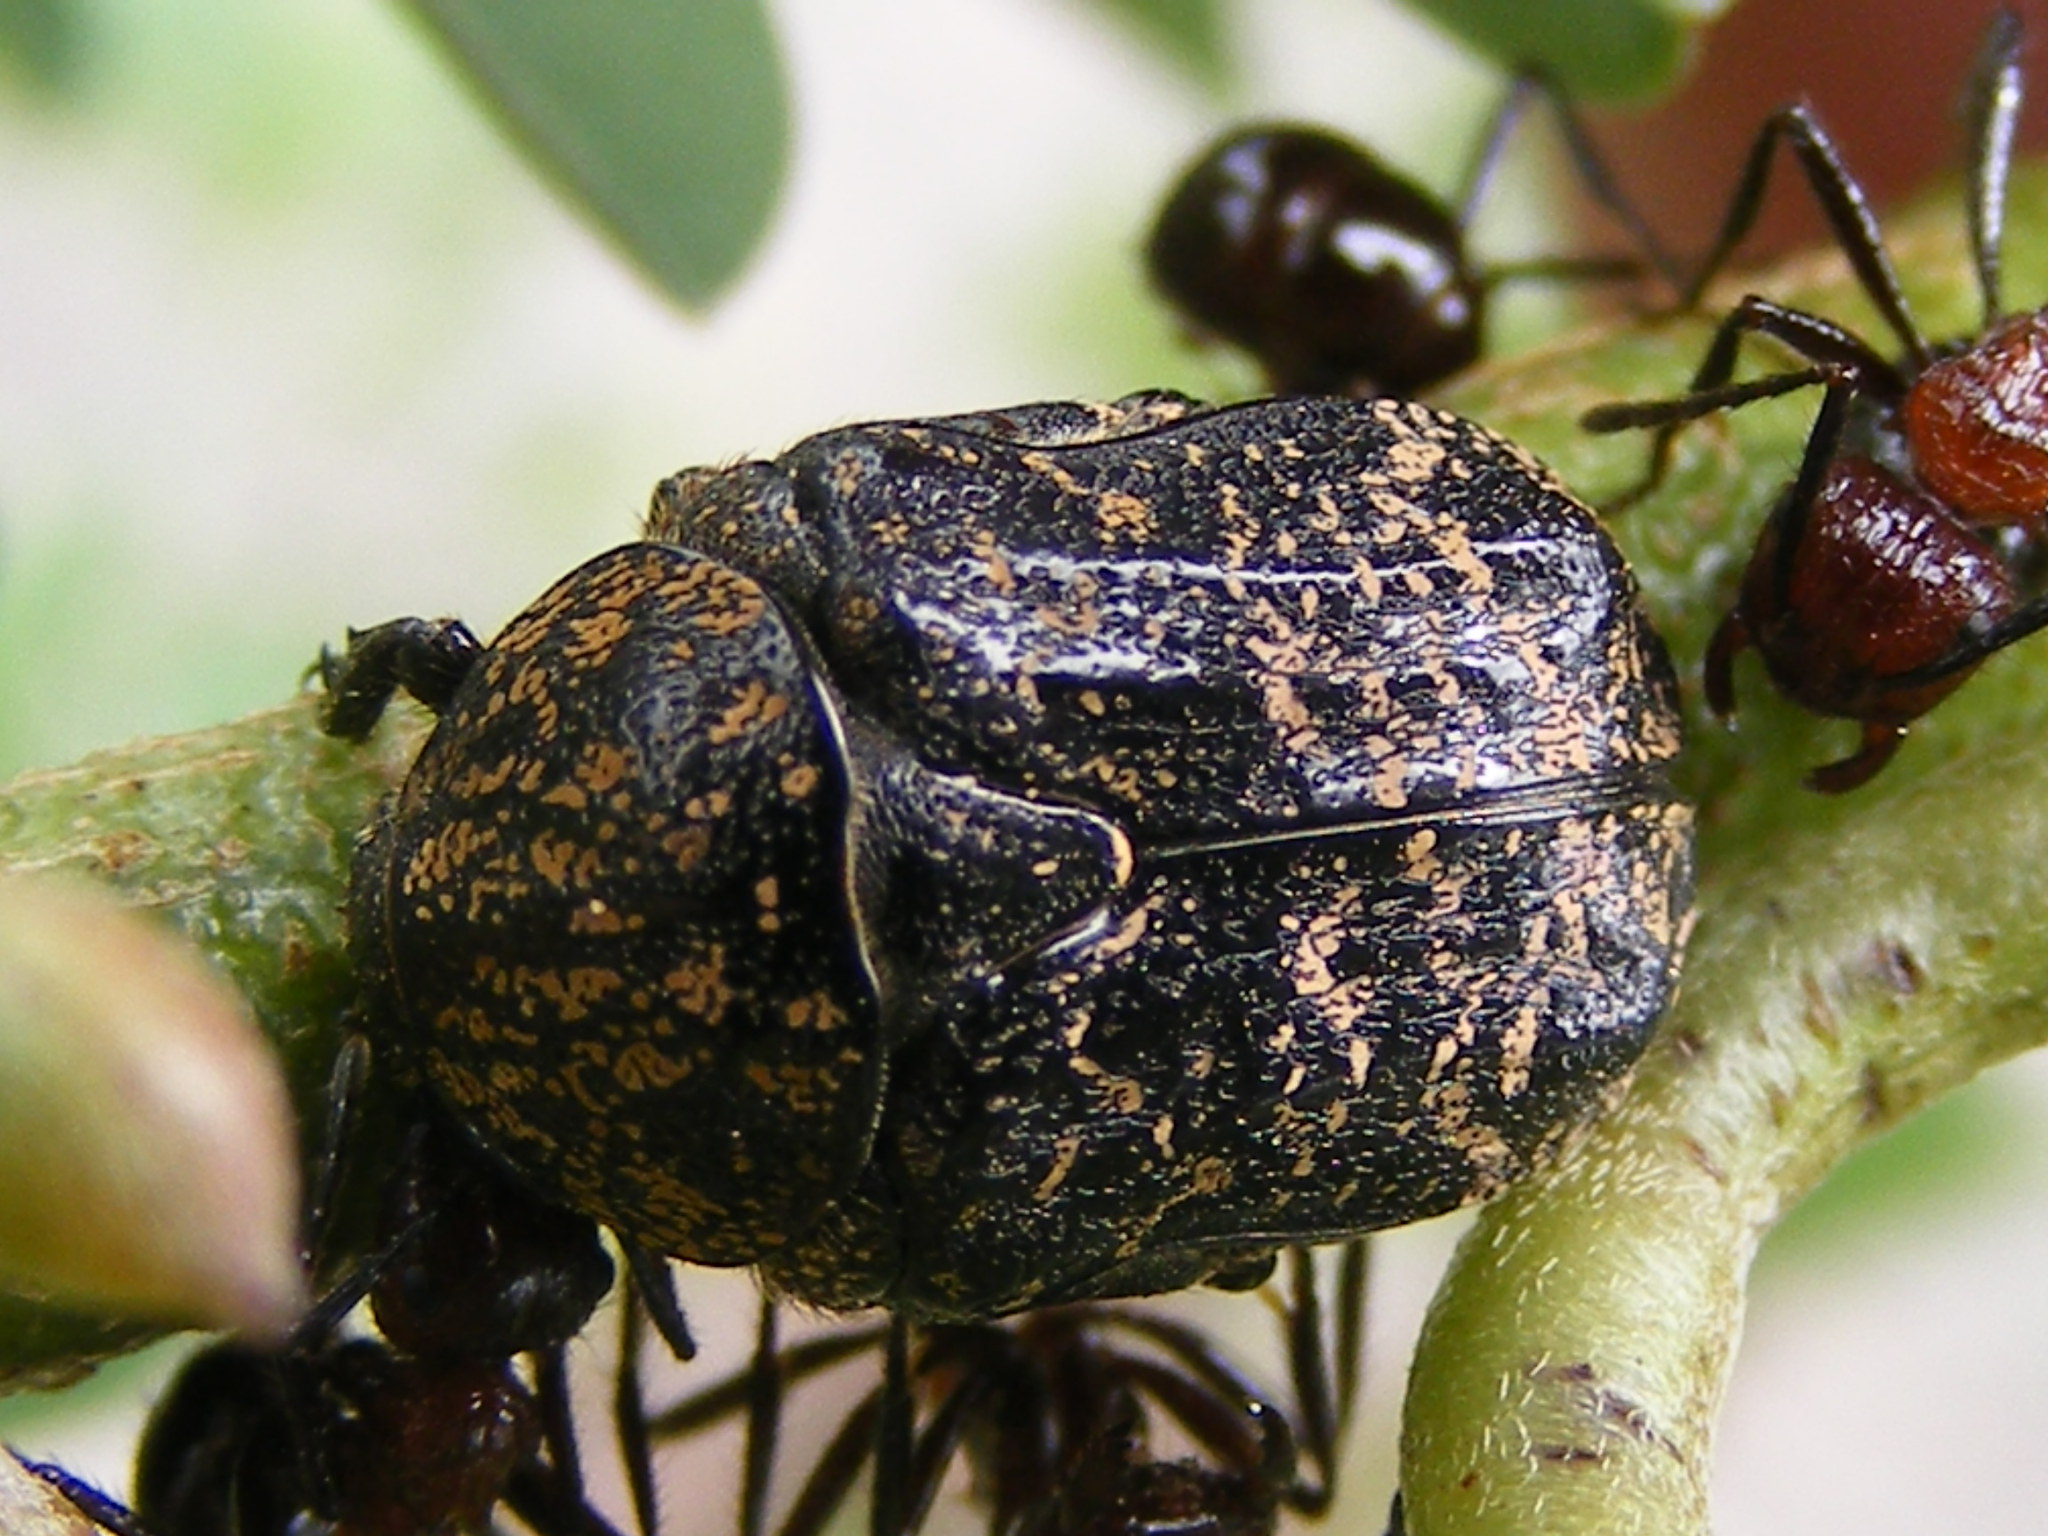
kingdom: Animalia
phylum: Arthropoda
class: Insecta
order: Coleoptera
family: Scarabaeidae
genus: Xeloma
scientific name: Xeloma maura
